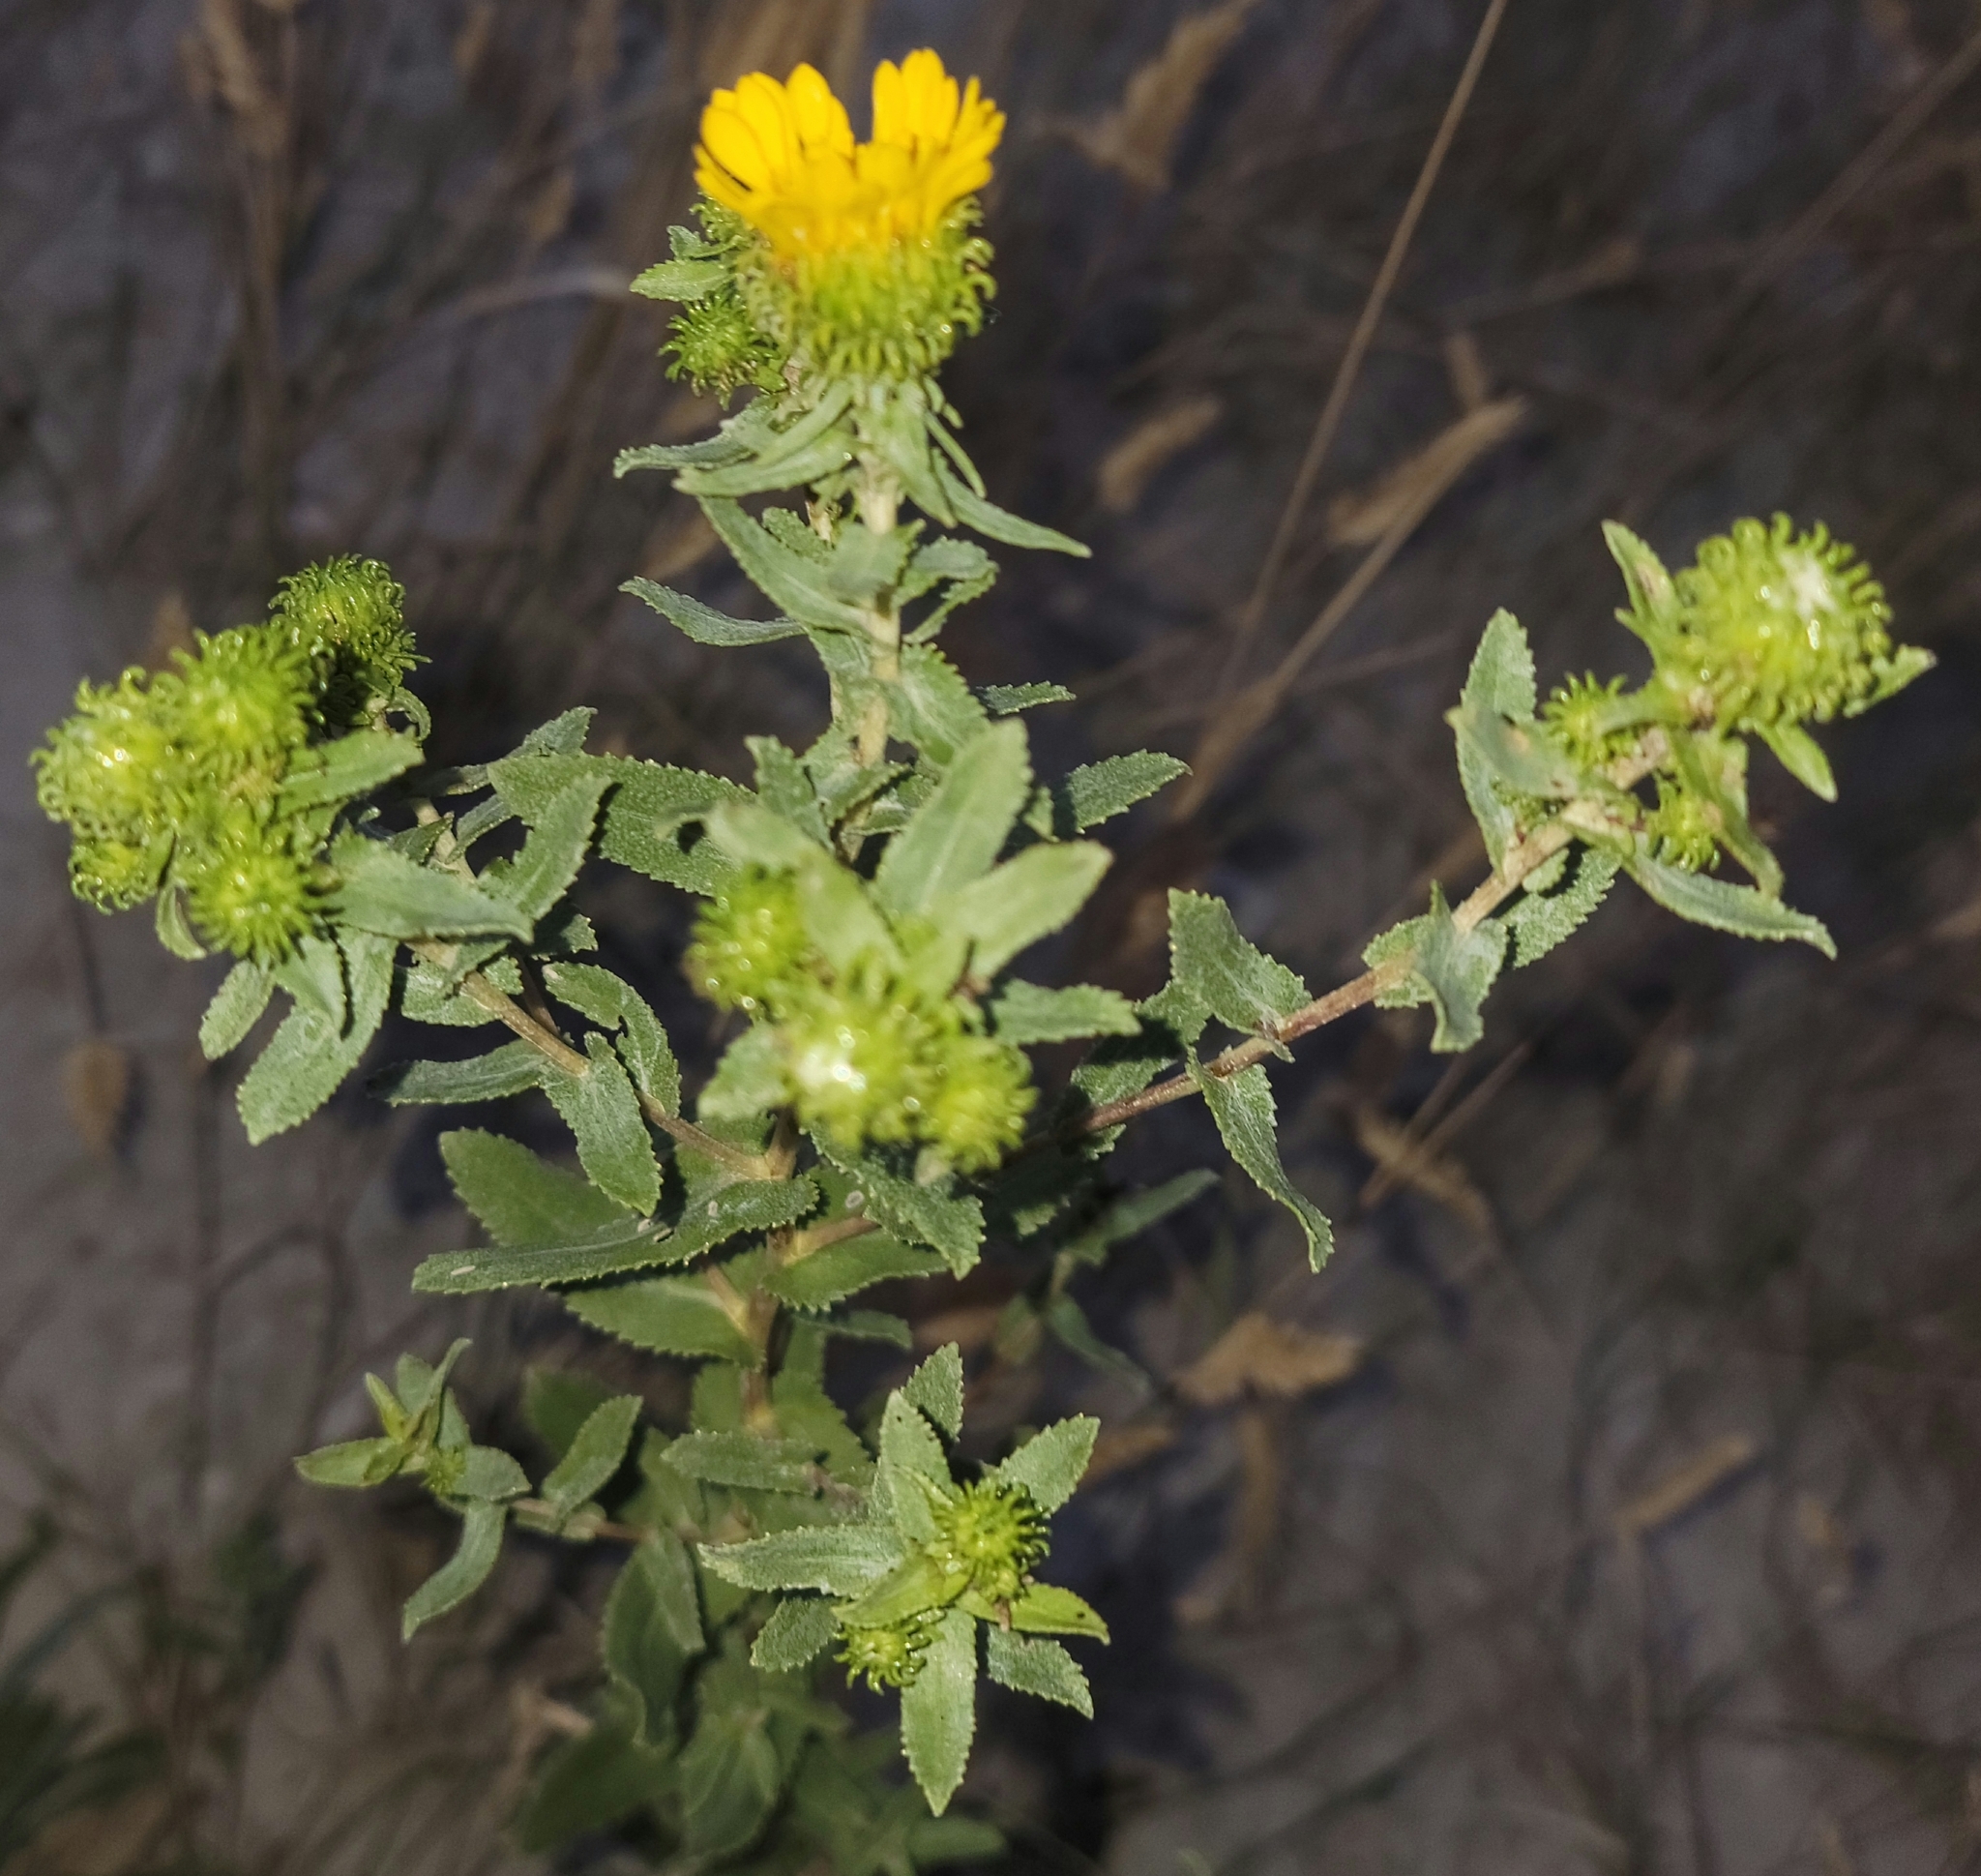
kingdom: Plantae
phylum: Tracheophyta
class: Magnoliopsida
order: Asterales
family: Asteraceae
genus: Grindelia
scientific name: Grindelia squarrosa
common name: Curly-cup gumweed
